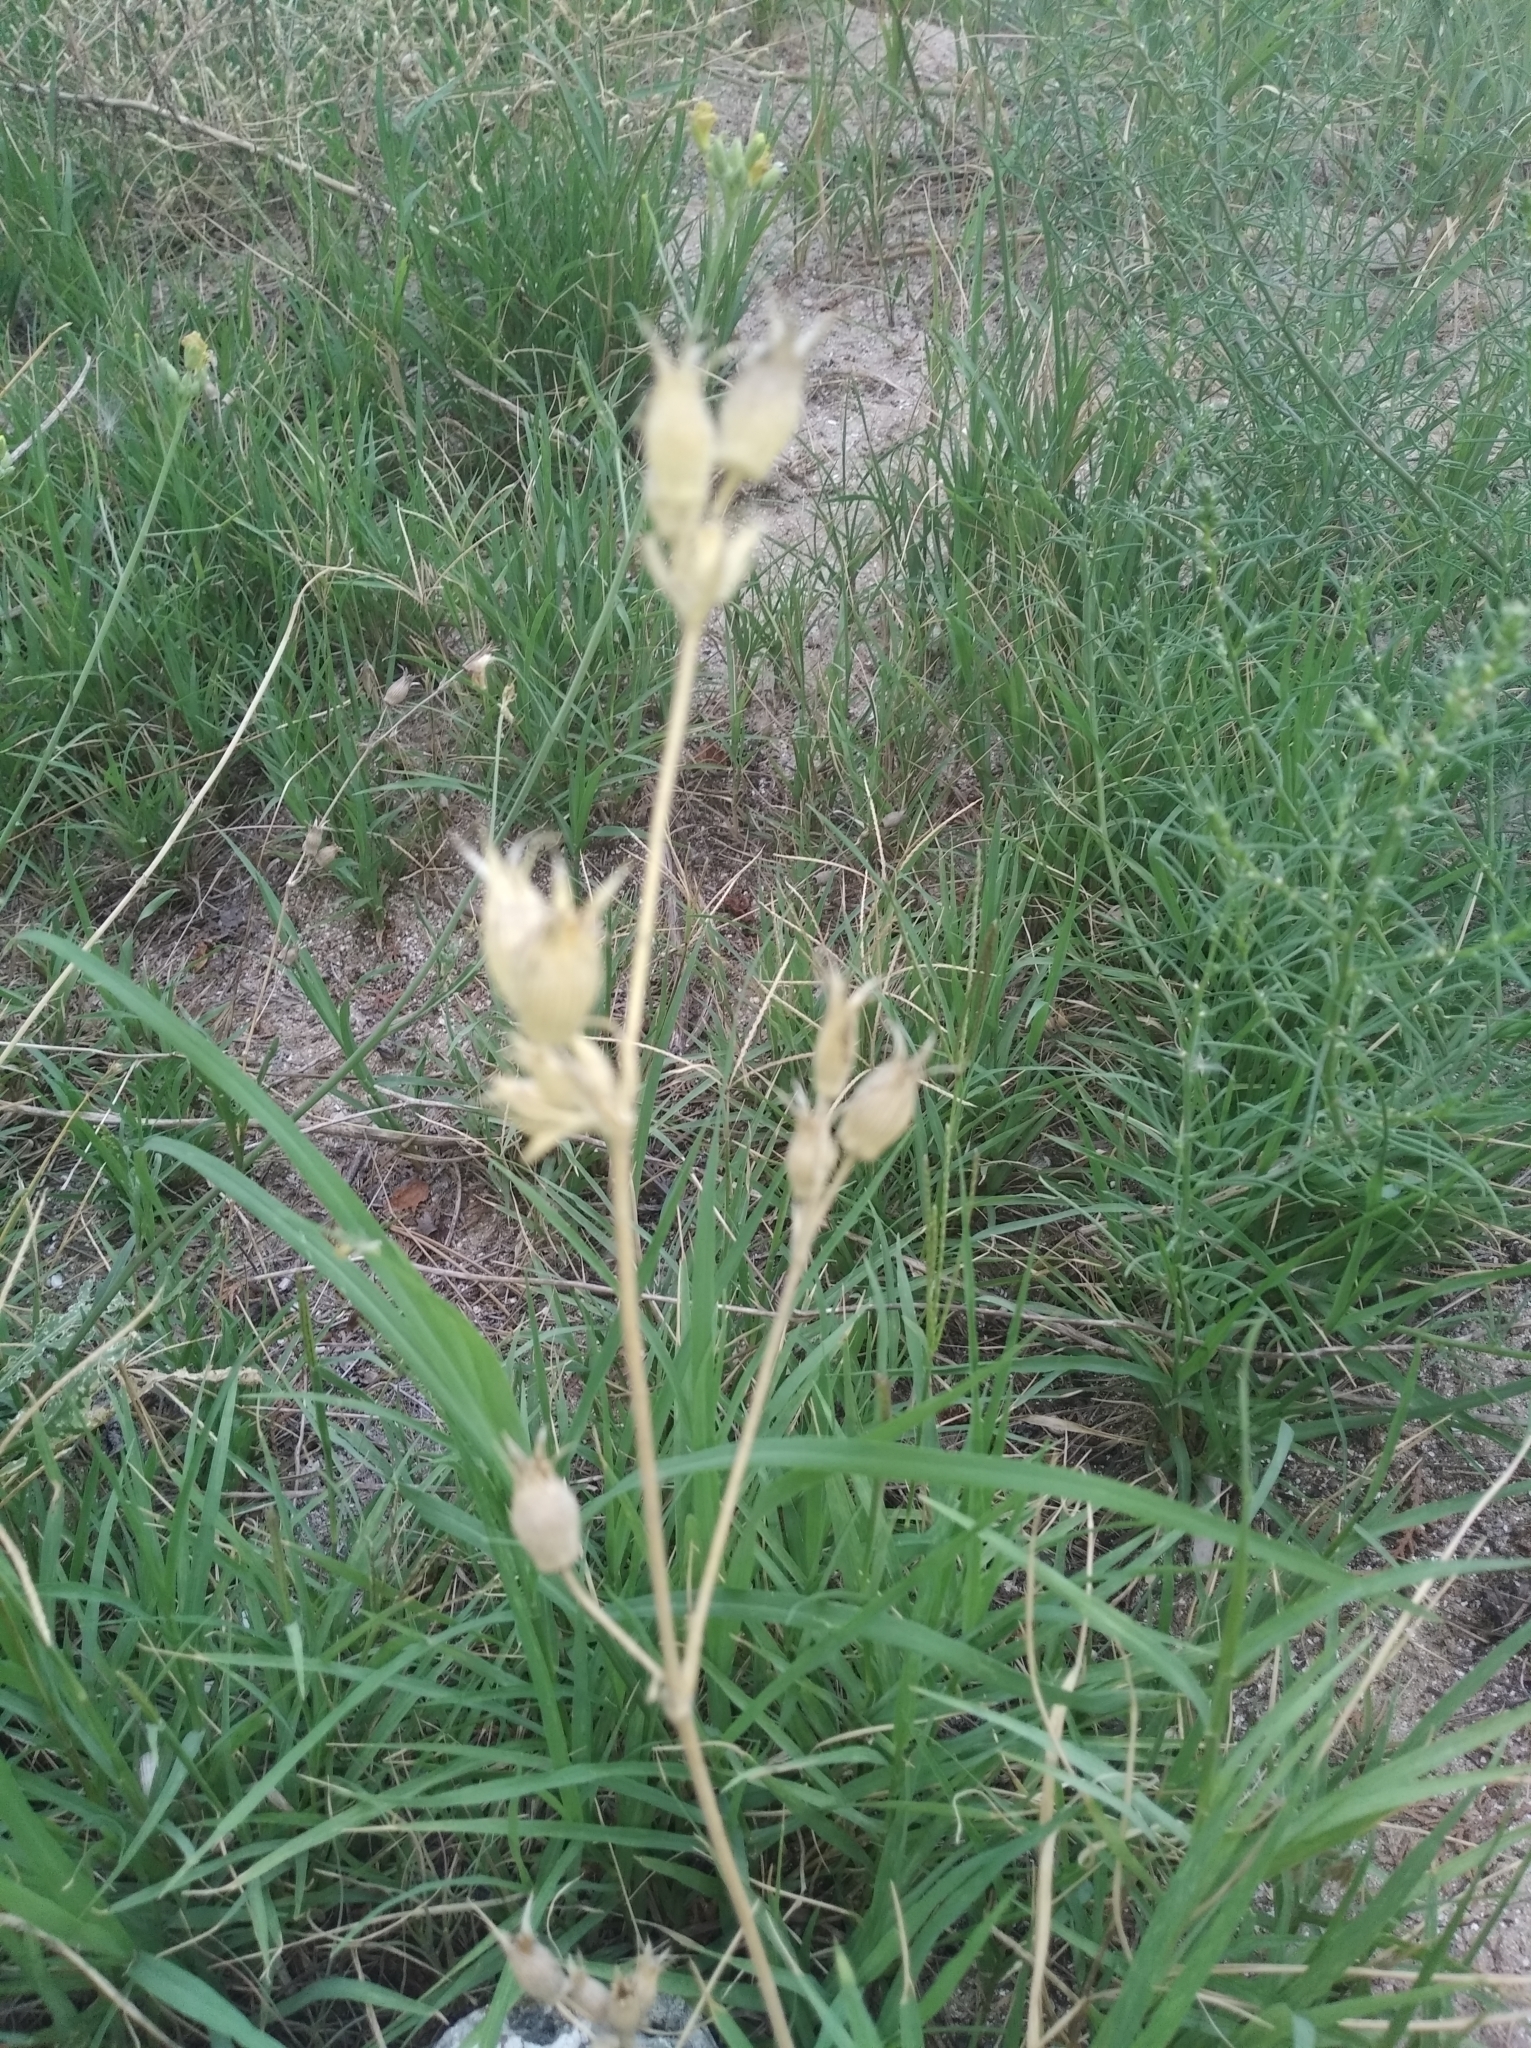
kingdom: Plantae
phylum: Tracheophyta
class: Magnoliopsida
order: Caryophyllales
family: Caryophyllaceae
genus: Silene
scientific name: Silene subconica
